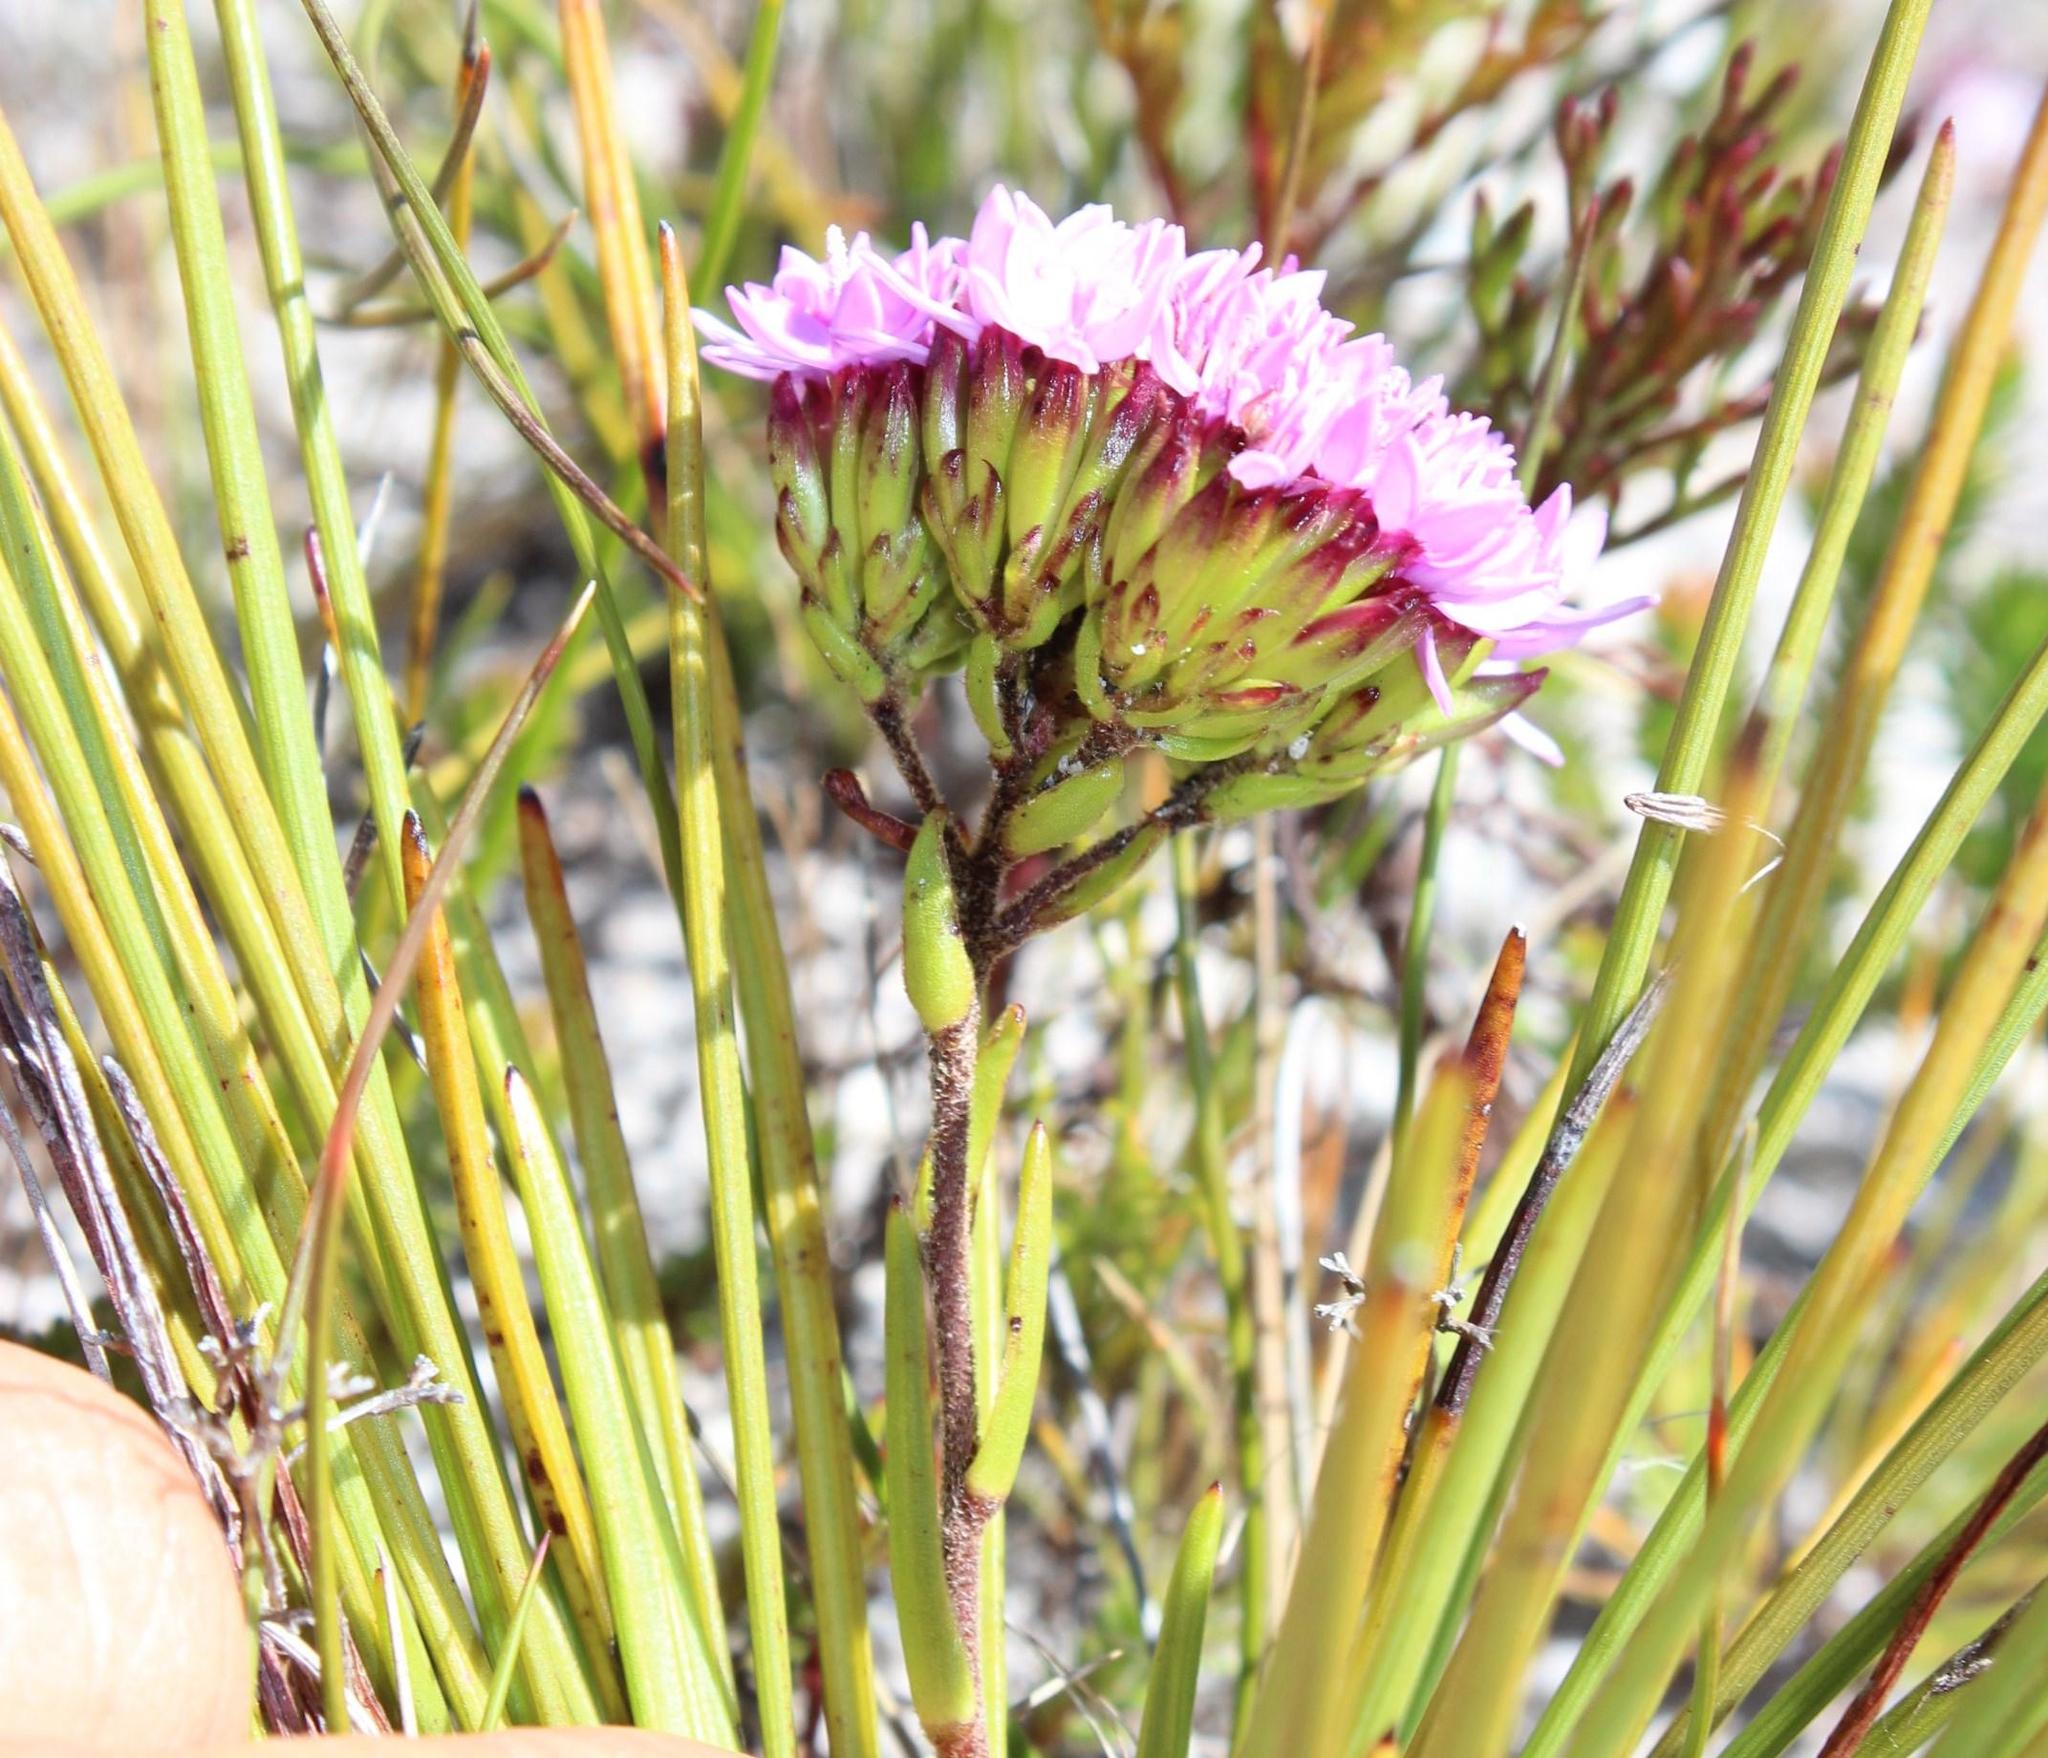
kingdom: Plantae
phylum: Tracheophyta
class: Magnoliopsida
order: Asterales
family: Asteraceae
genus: Corymbium
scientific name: Corymbium glabrum
